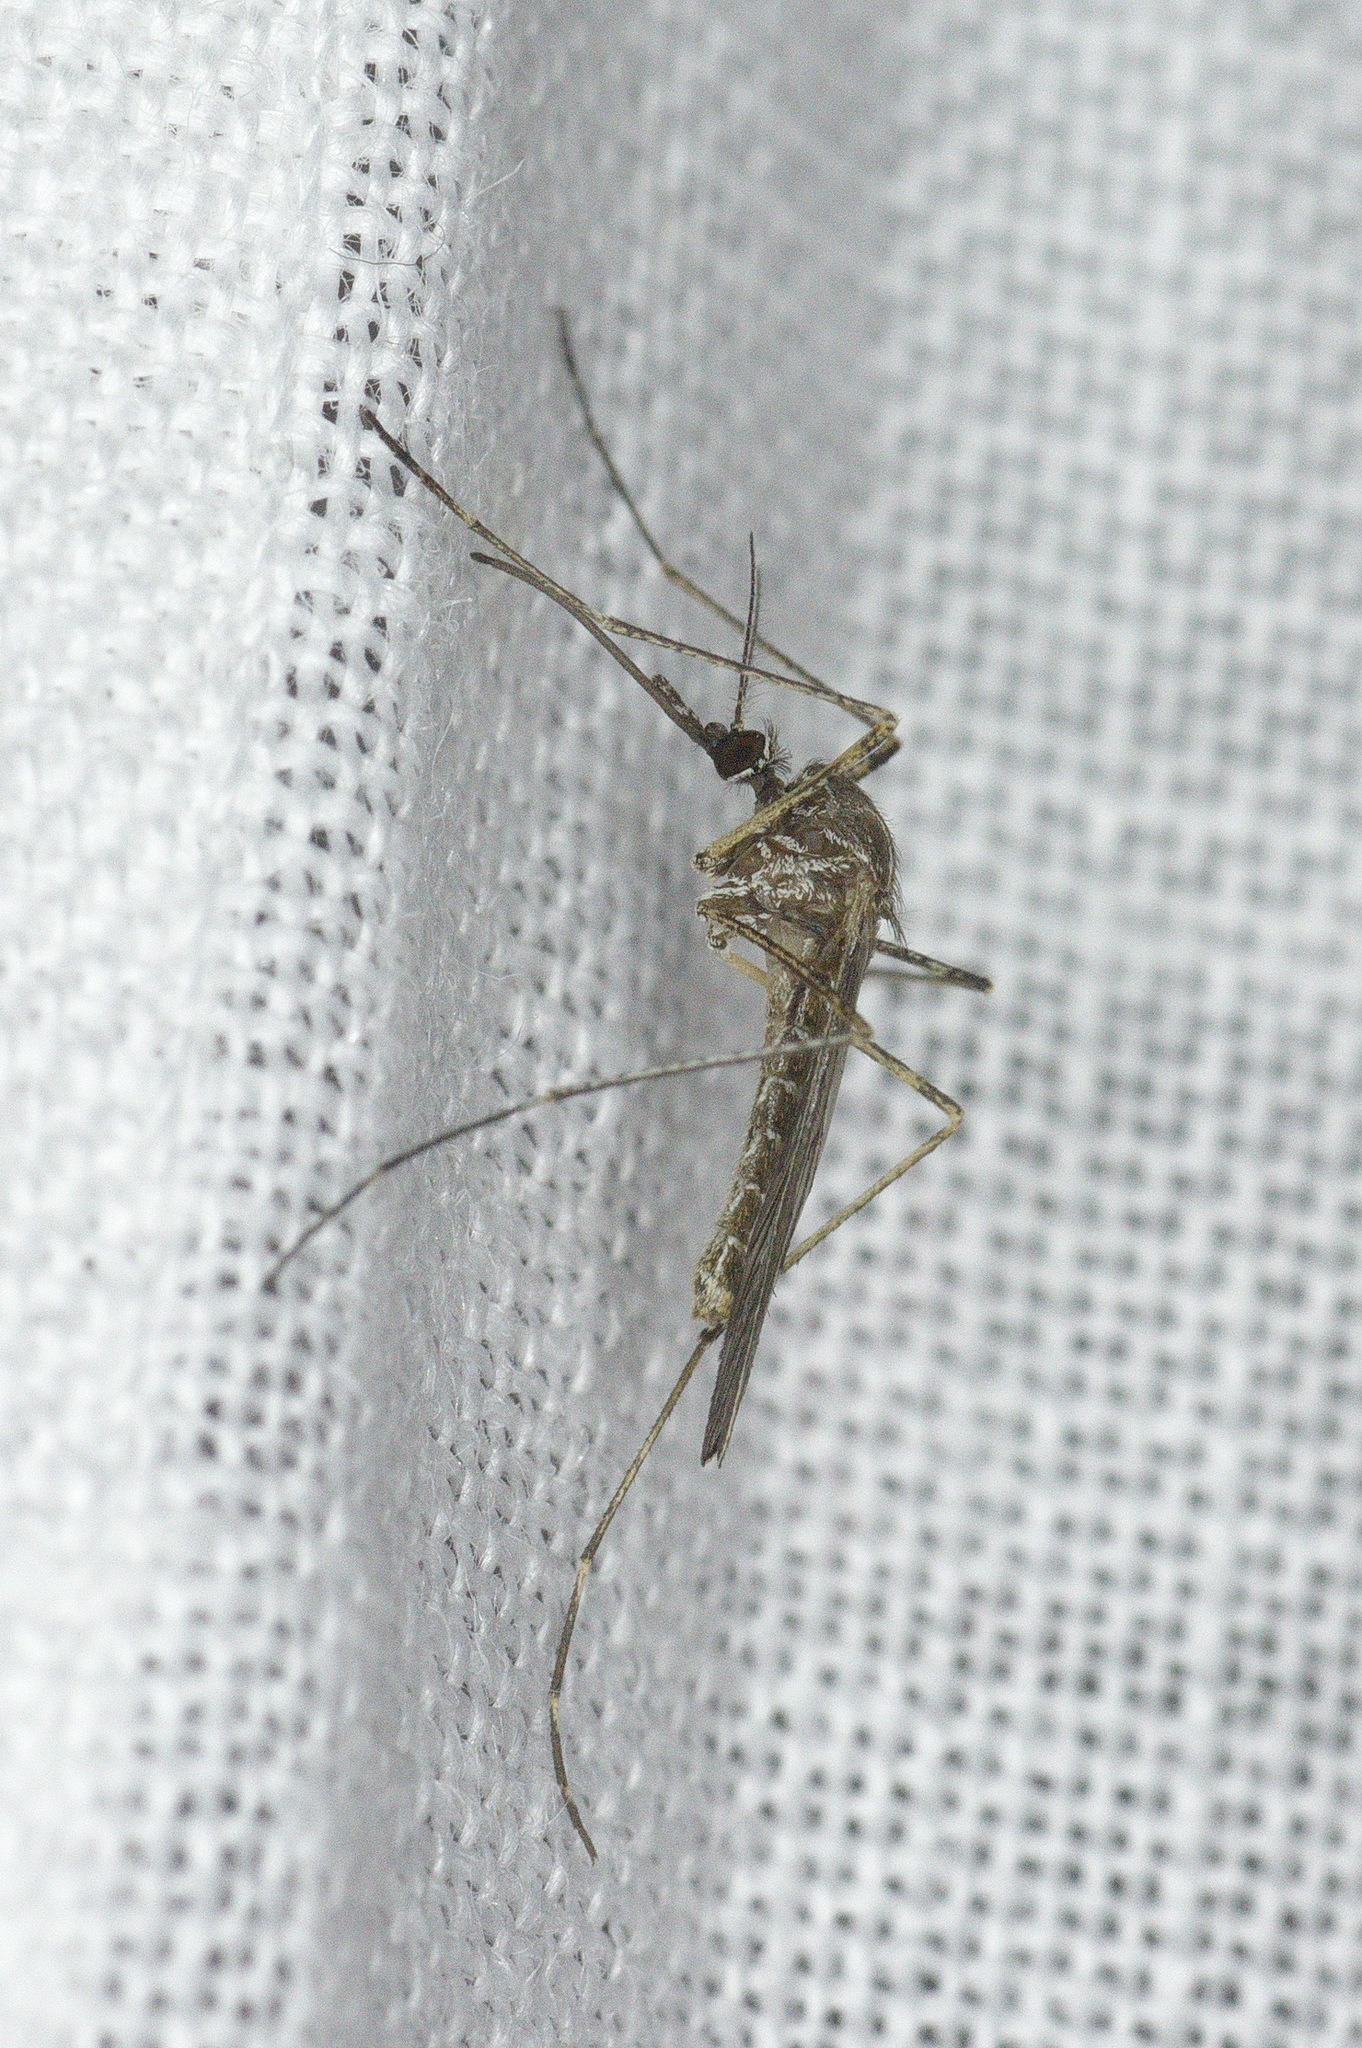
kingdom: Animalia
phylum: Arthropoda
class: Insecta
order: Diptera
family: Culicidae
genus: Culiseta
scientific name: Culiseta longiareolata
